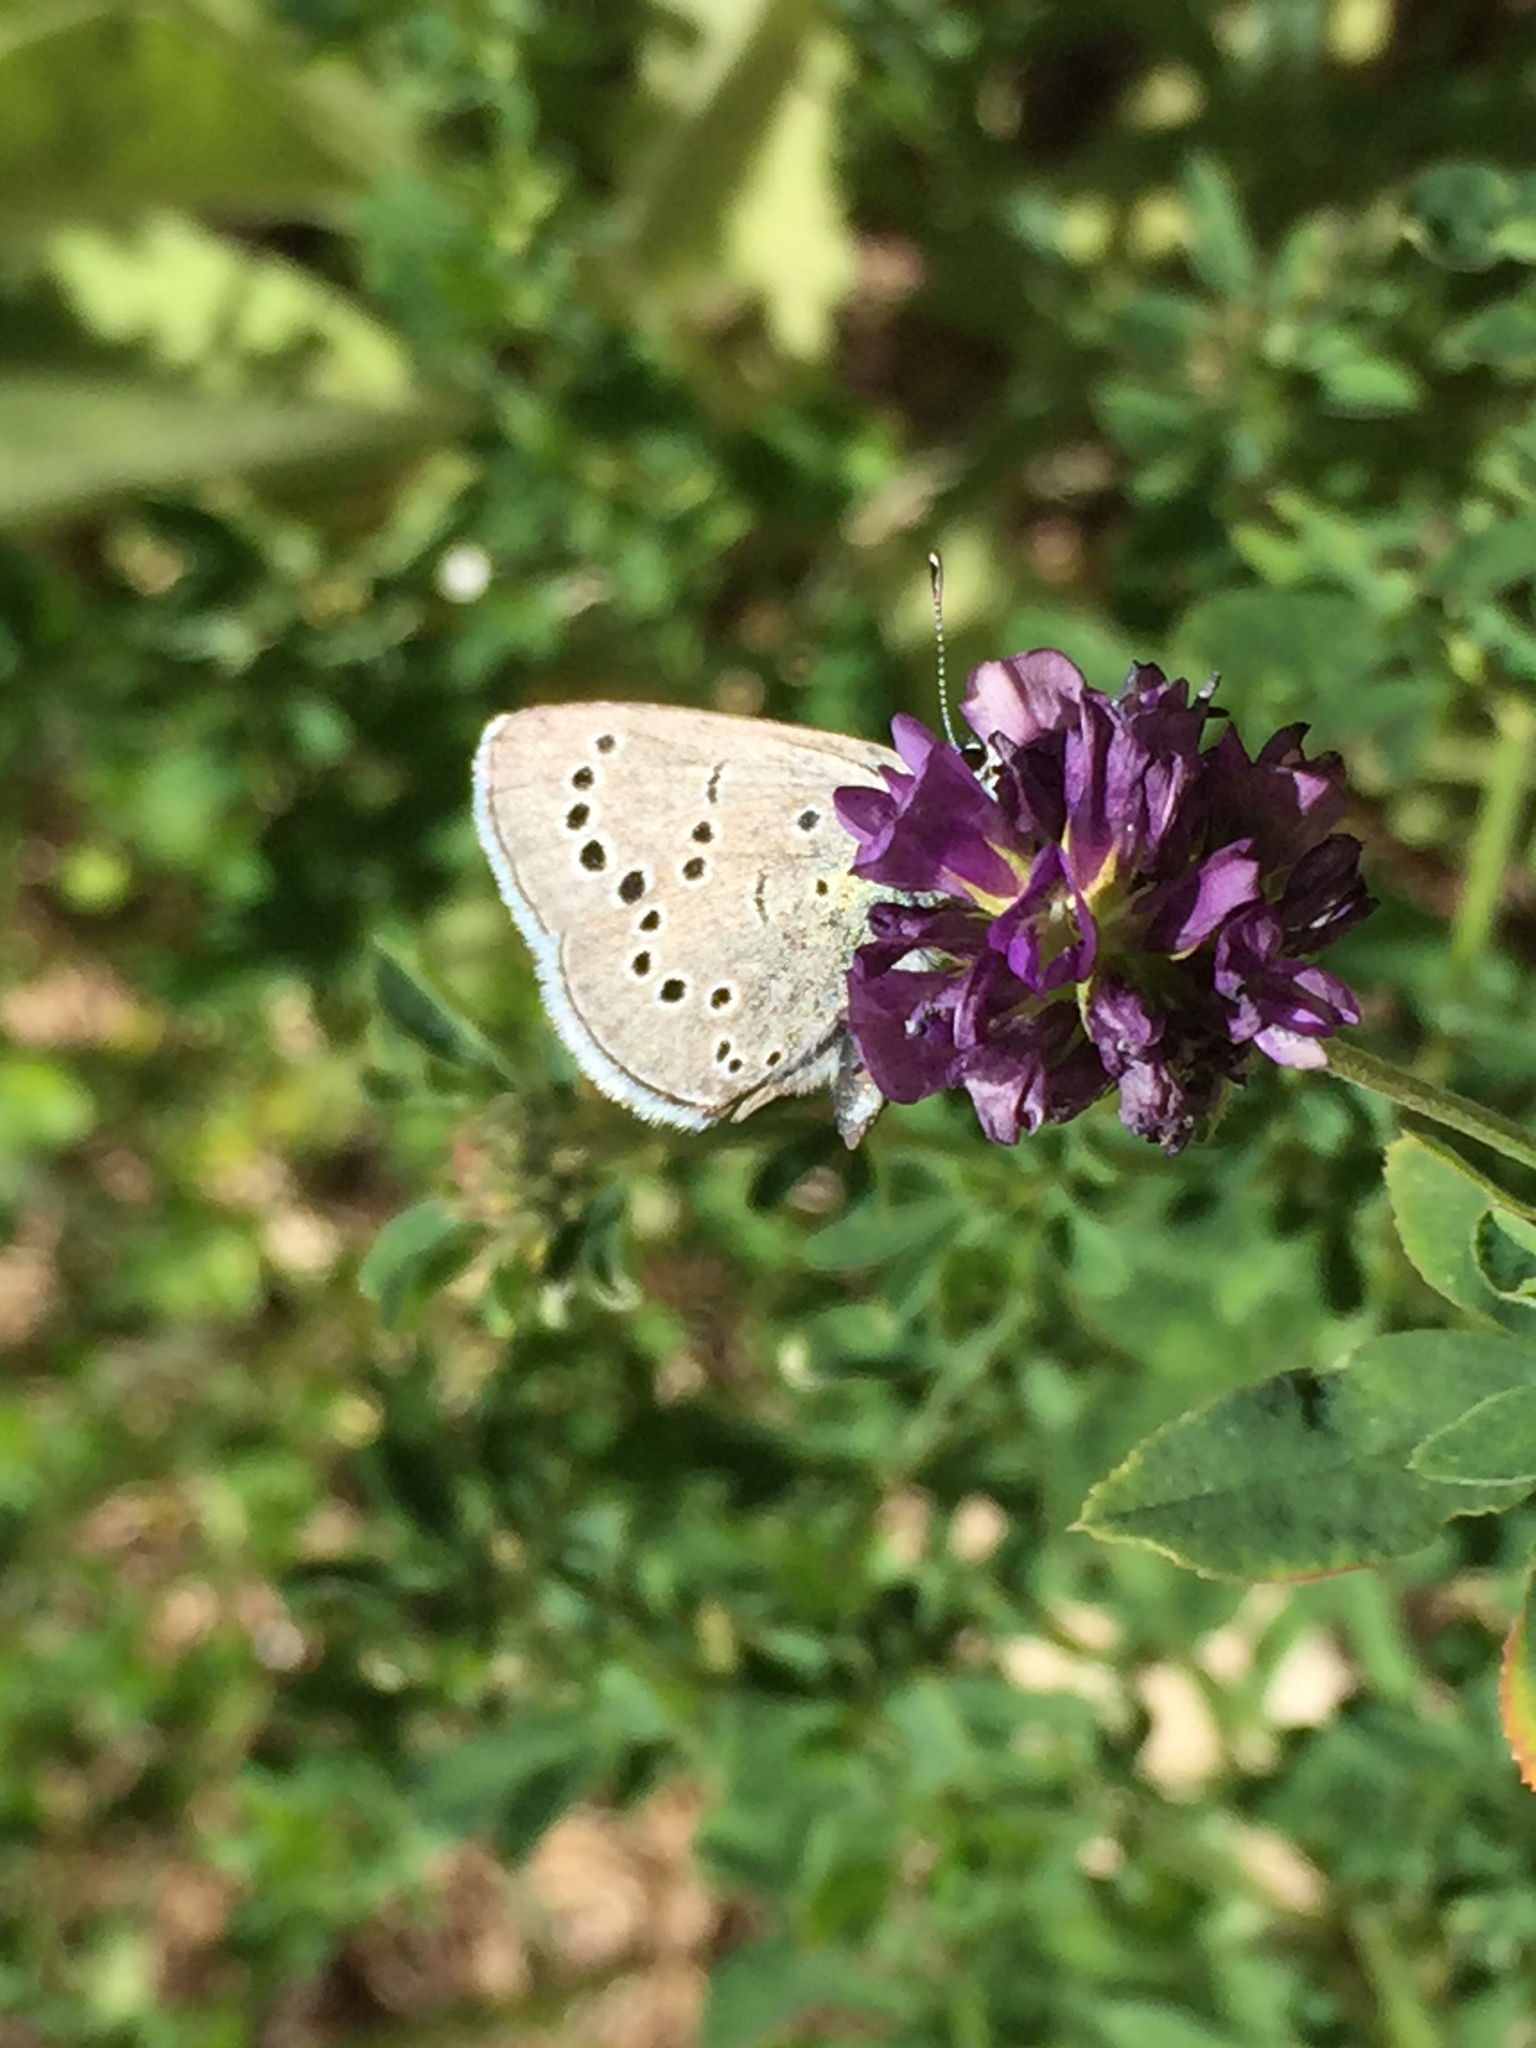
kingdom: Animalia
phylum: Arthropoda
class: Insecta
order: Lepidoptera
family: Lycaenidae
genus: Glaucopsyche
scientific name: Glaucopsyche lygdamus
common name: Silvery blue
